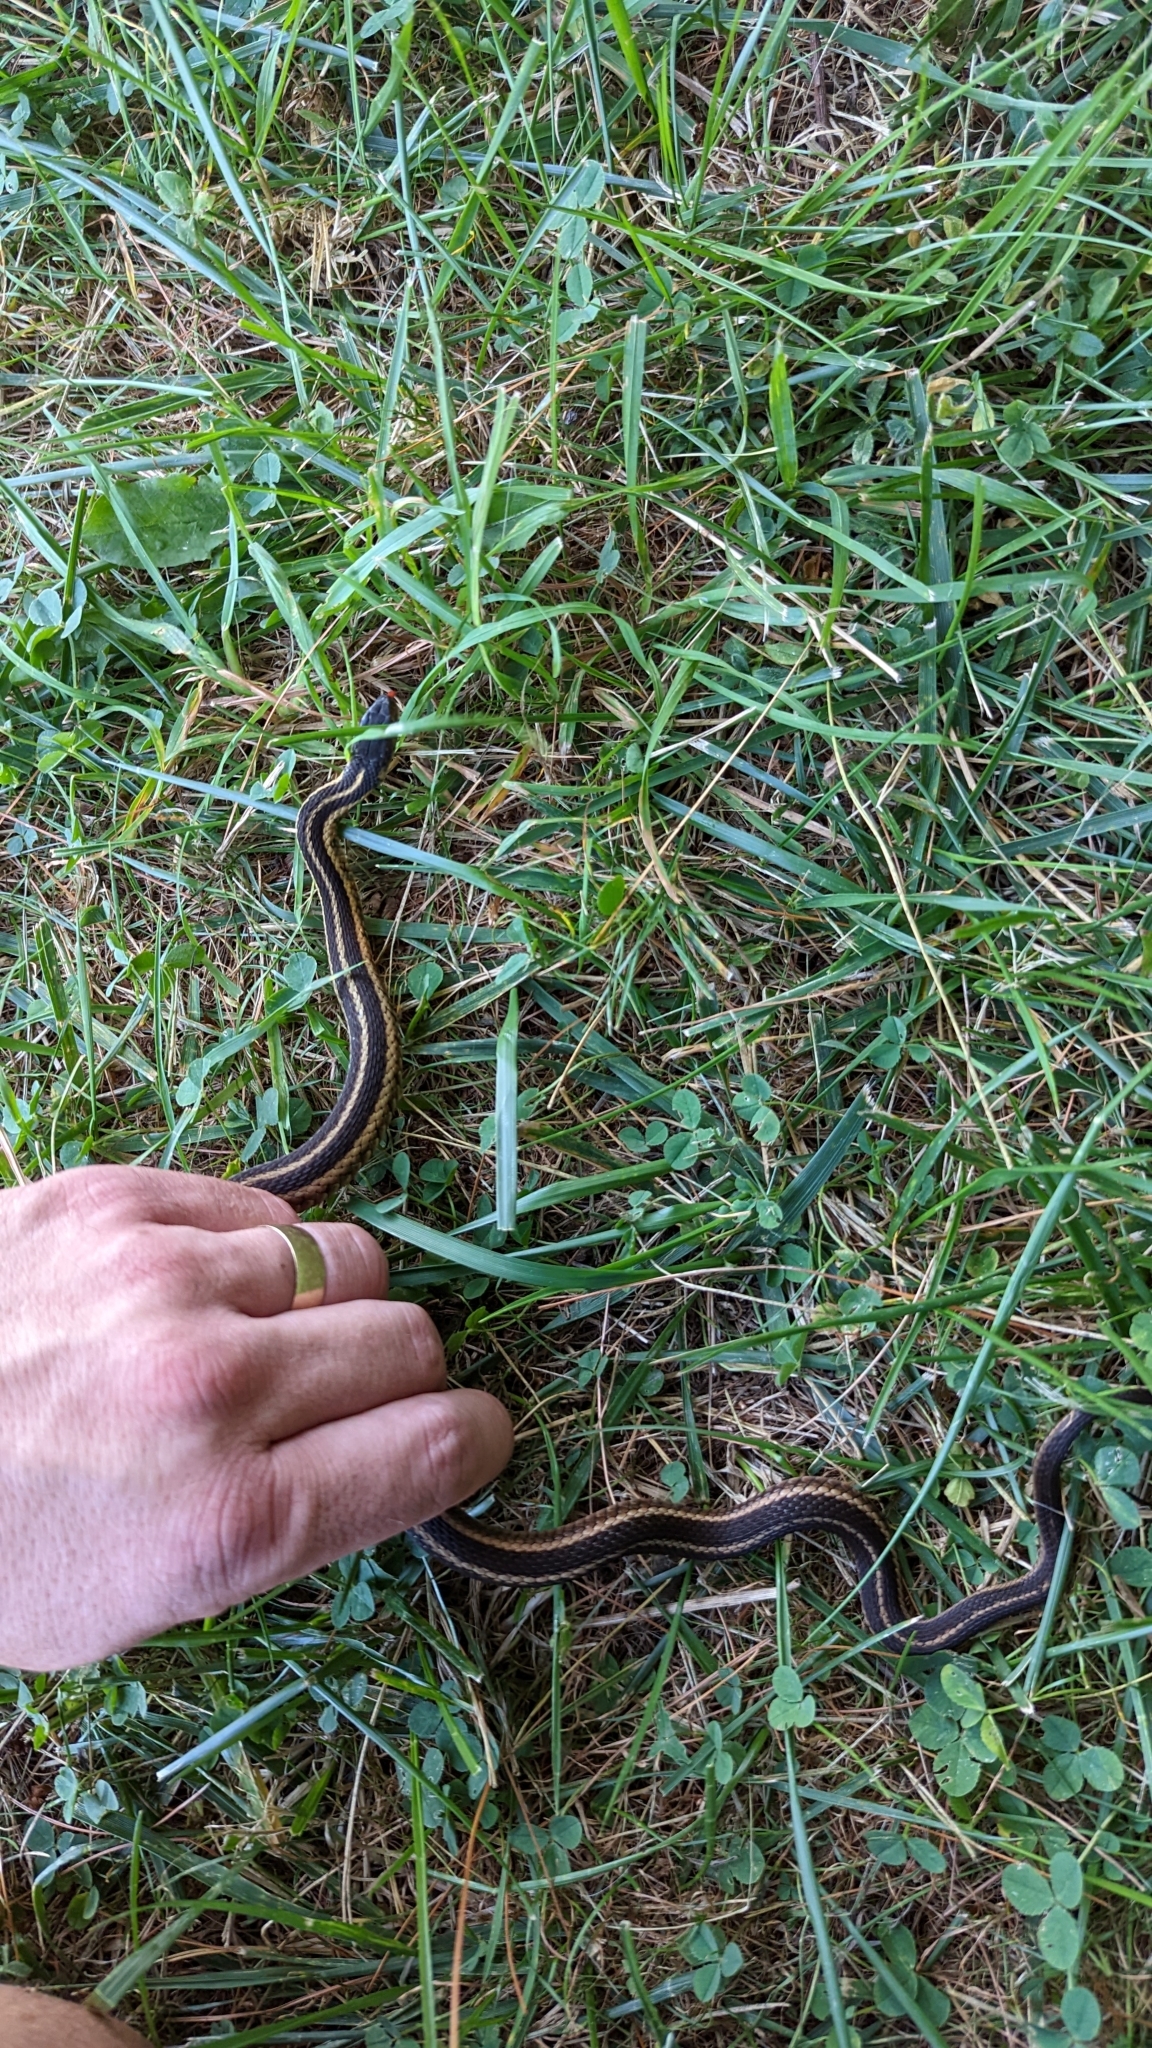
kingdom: Animalia
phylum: Chordata
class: Squamata
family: Colubridae
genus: Thamnophis
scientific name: Thamnophis sirtalis
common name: Common garter snake
